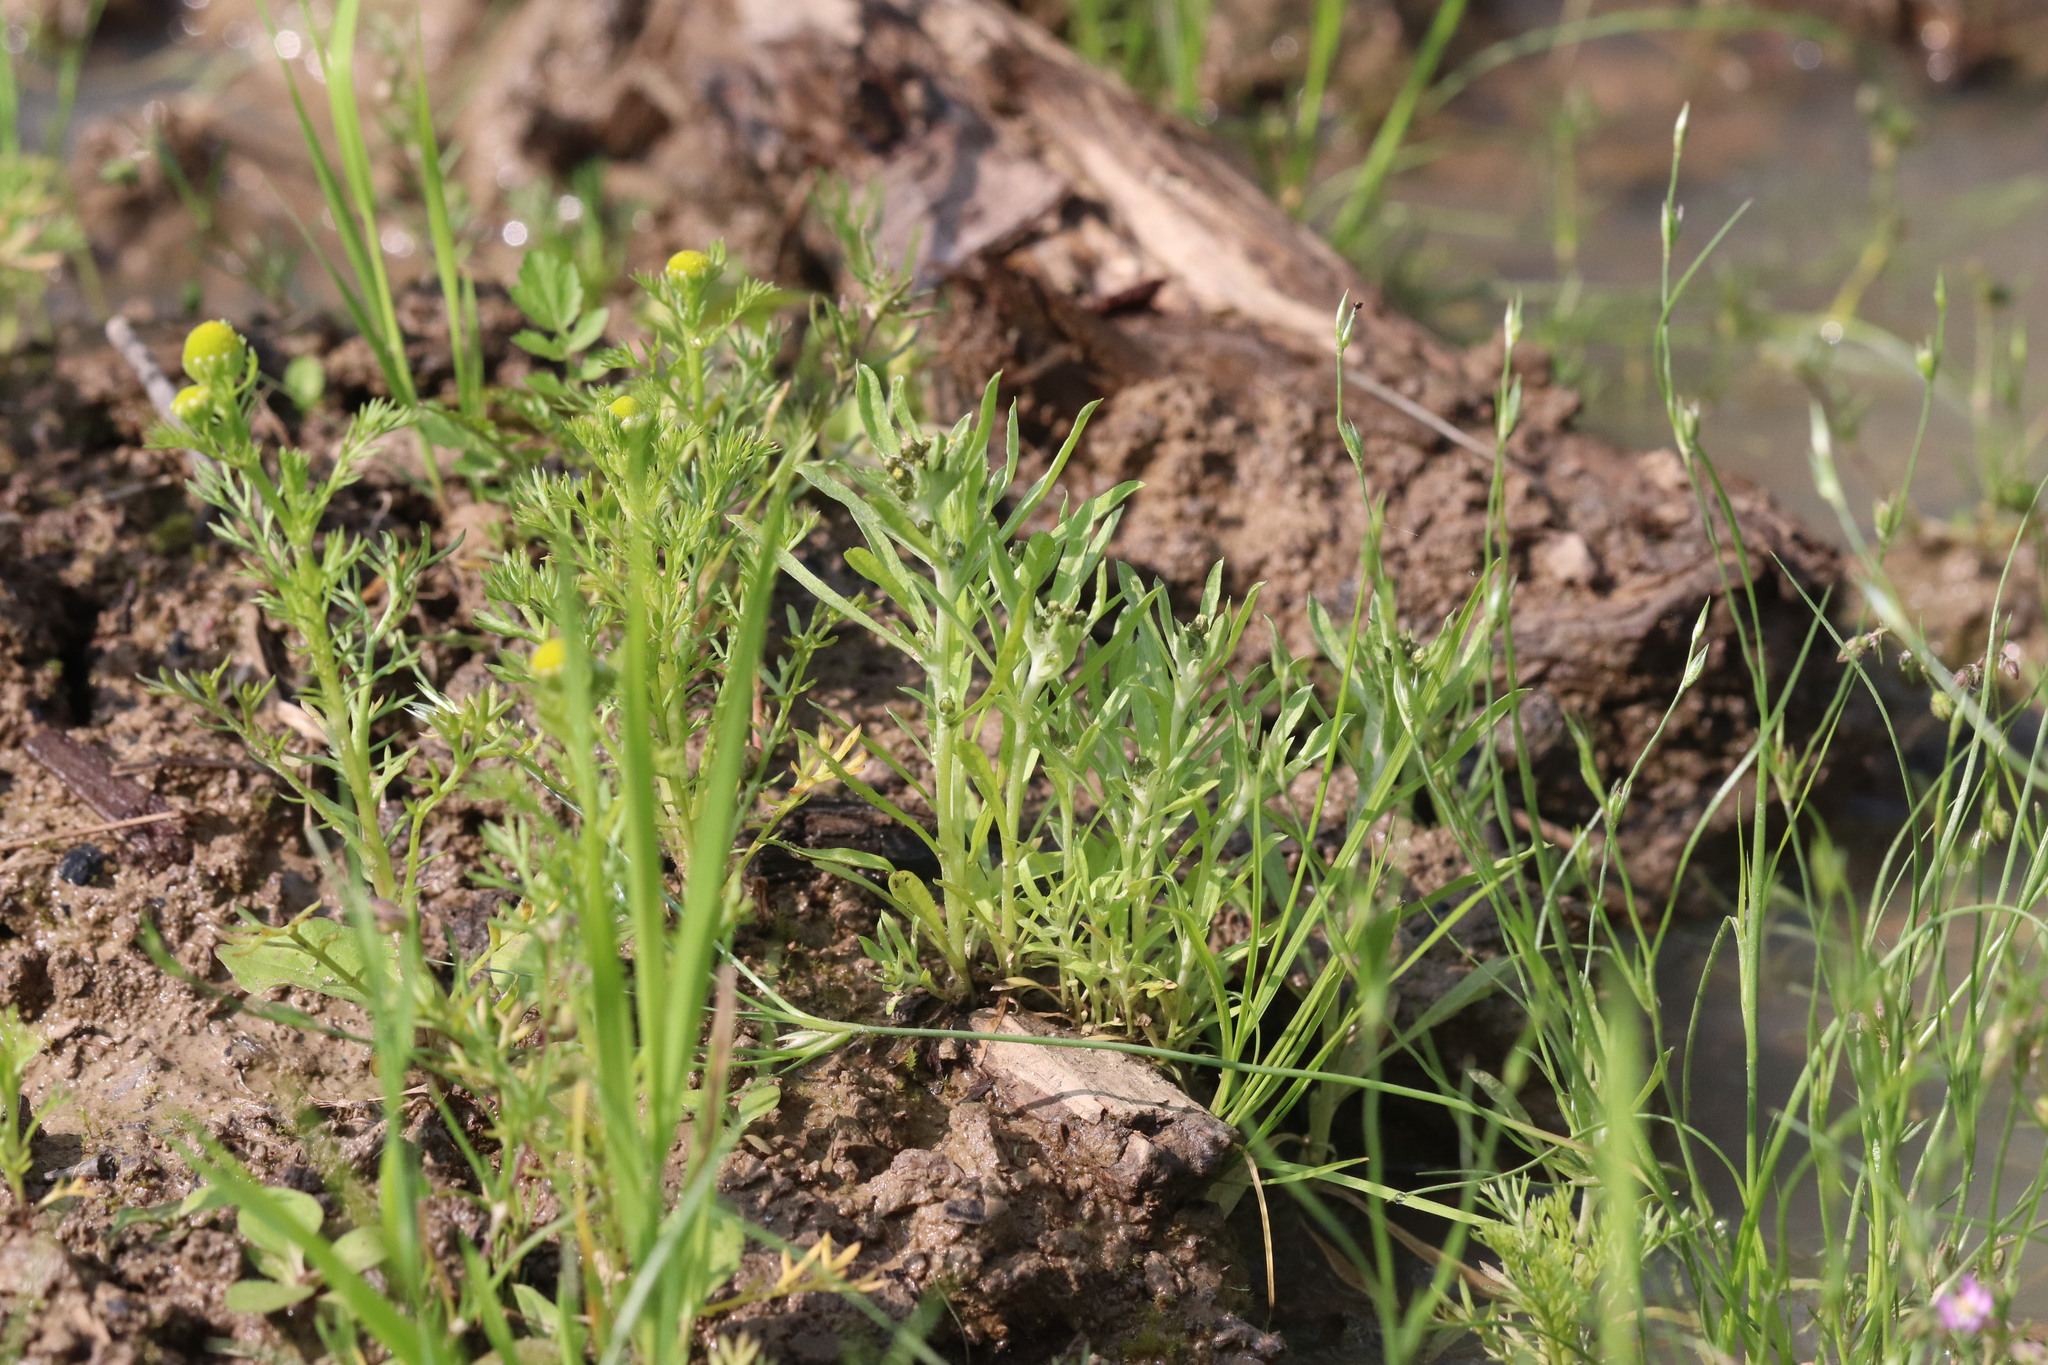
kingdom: Plantae
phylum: Tracheophyta
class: Magnoliopsida
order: Asterales
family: Asteraceae
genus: Gnaphalium
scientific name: Gnaphalium uliginosum
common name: Marsh cudweed
